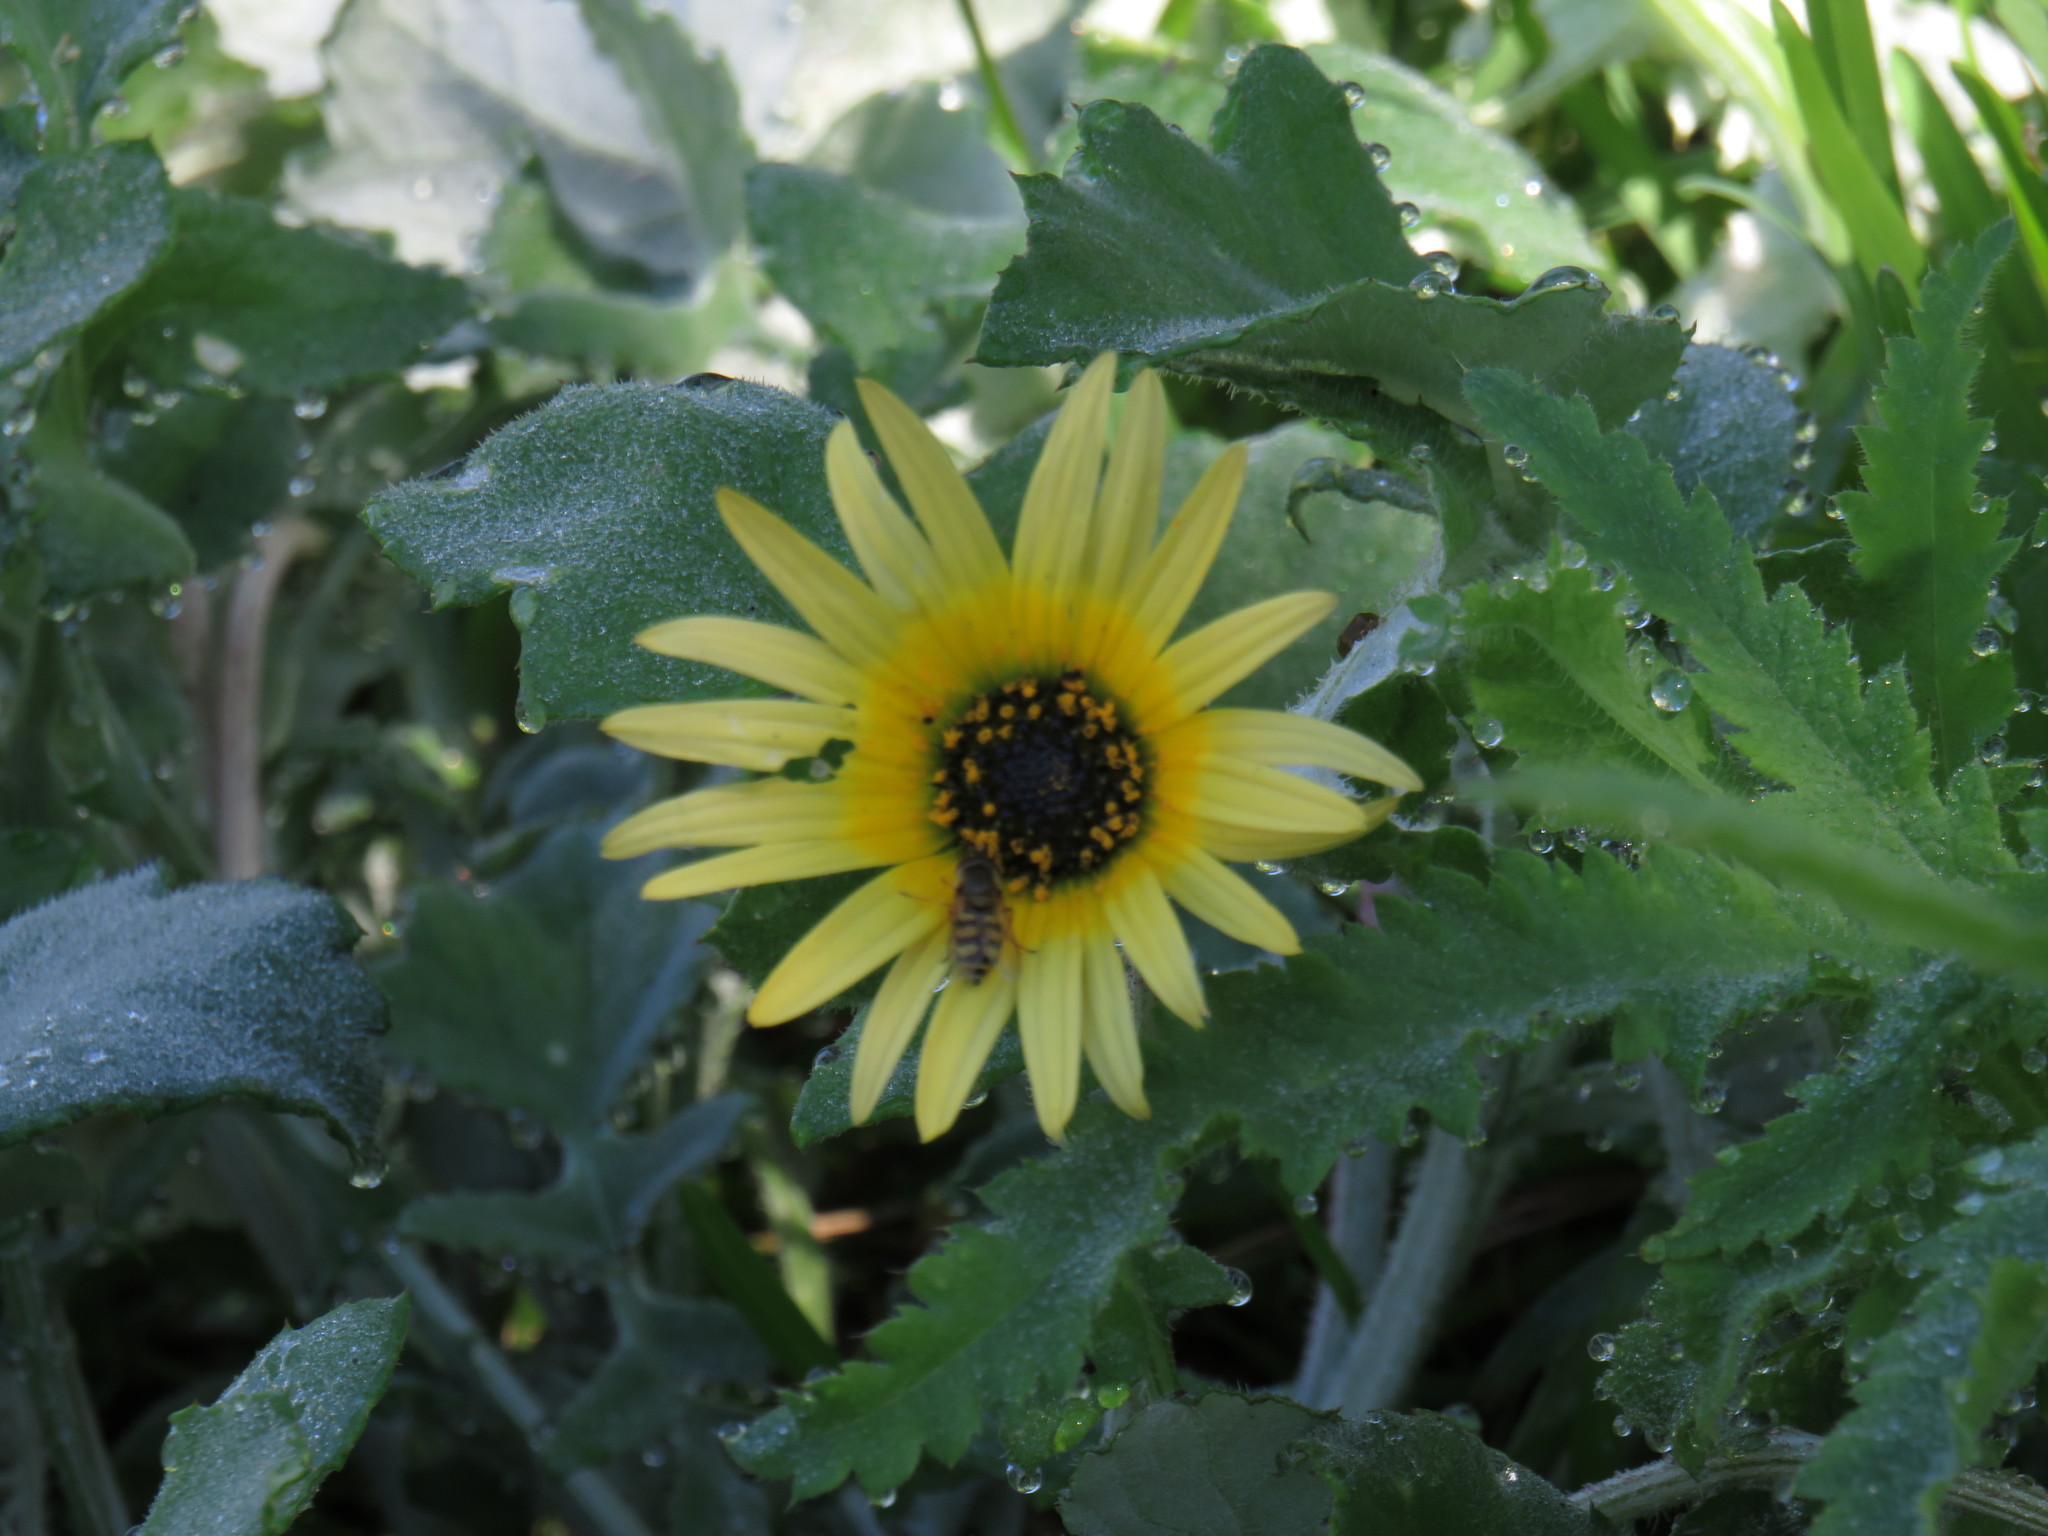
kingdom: Animalia
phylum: Arthropoda
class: Insecta
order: Diptera
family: Syrphidae
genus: Eupeodes
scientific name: Eupeodes corollae
